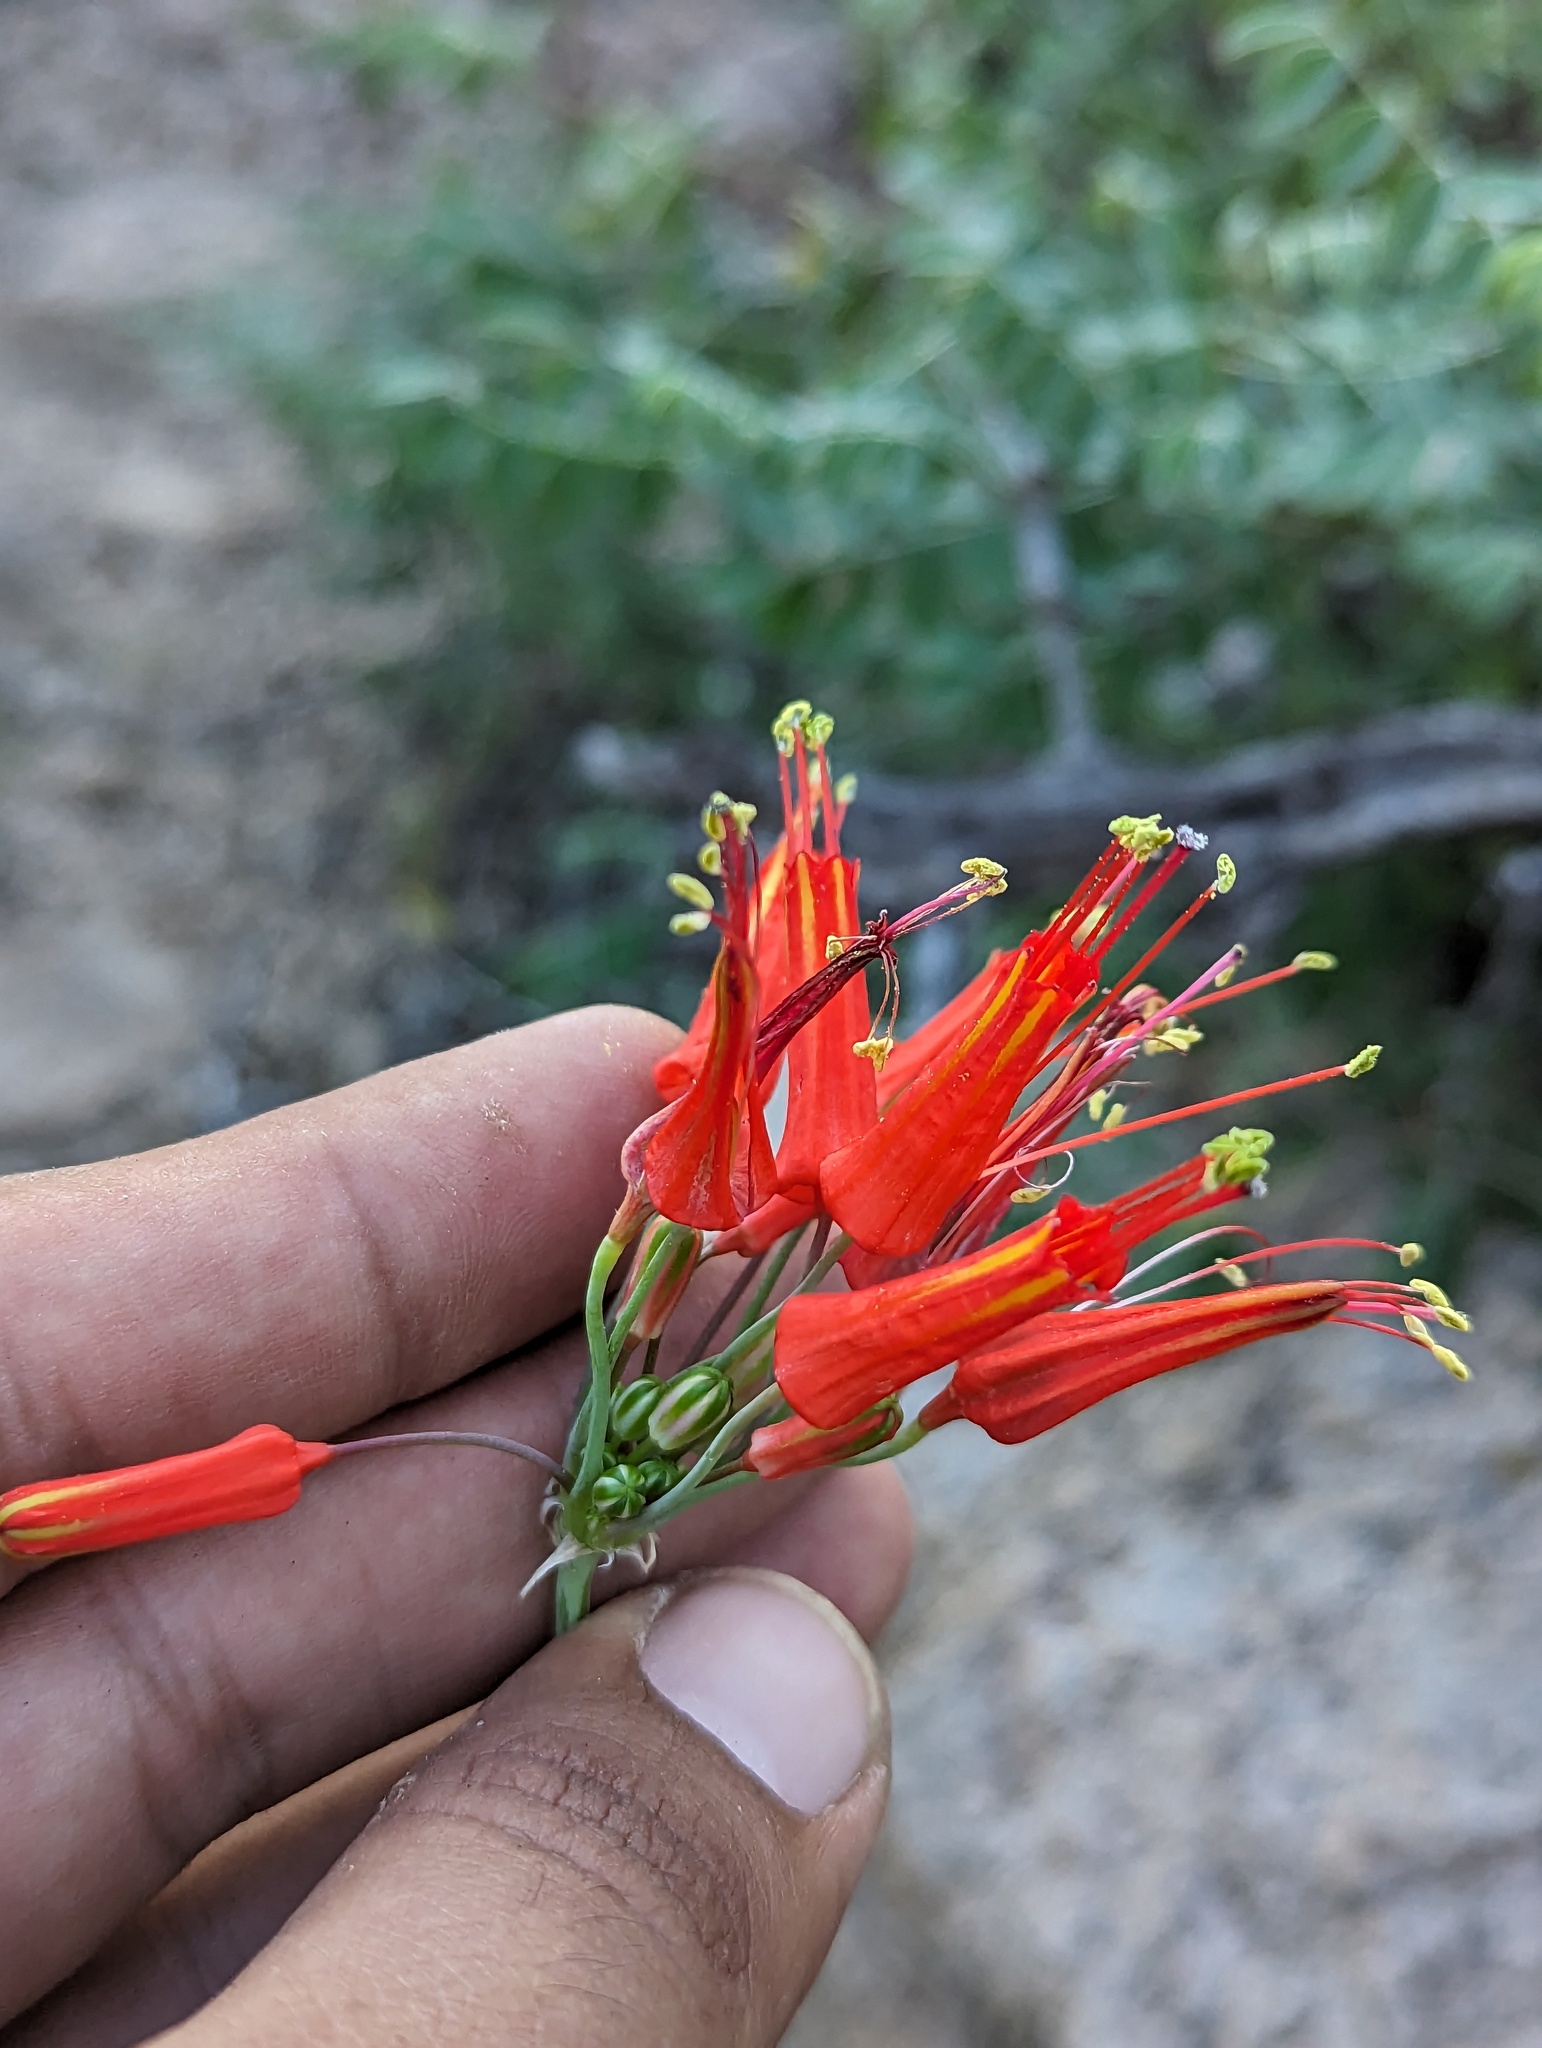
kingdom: Plantae
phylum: Tracheophyta
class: Liliopsida
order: Asparagales
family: Asparagaceae
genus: Bessera
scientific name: Bessera tenuiflora
